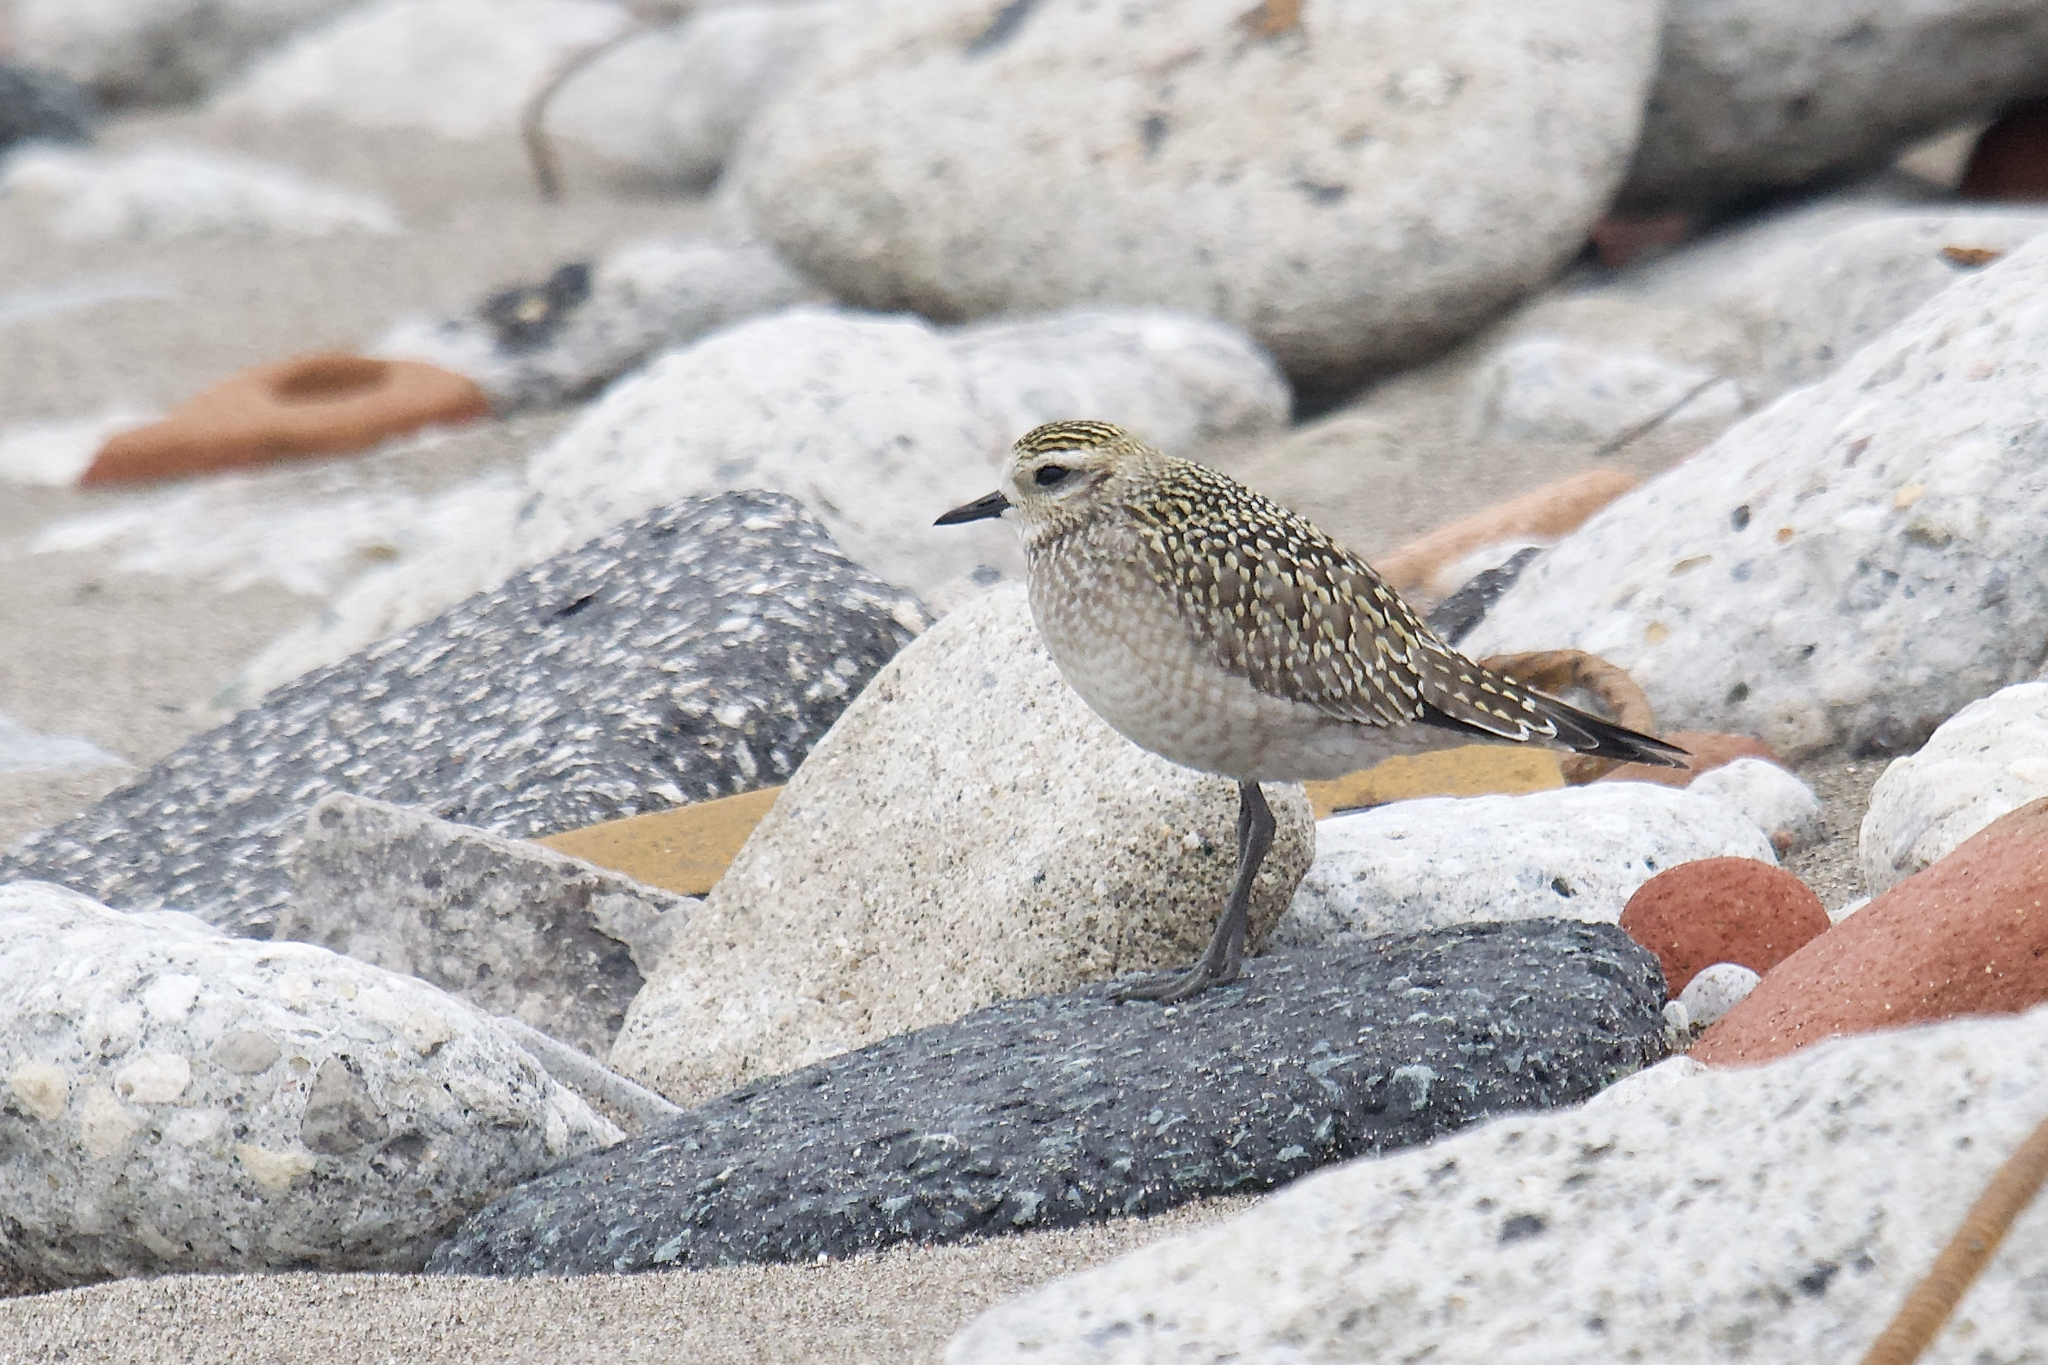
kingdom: Animalia
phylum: Chordata
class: Aves
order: Charadriiformes
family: Charadriidae
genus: Pluvialis
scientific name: Pluvialis dominica
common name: American golden plover
